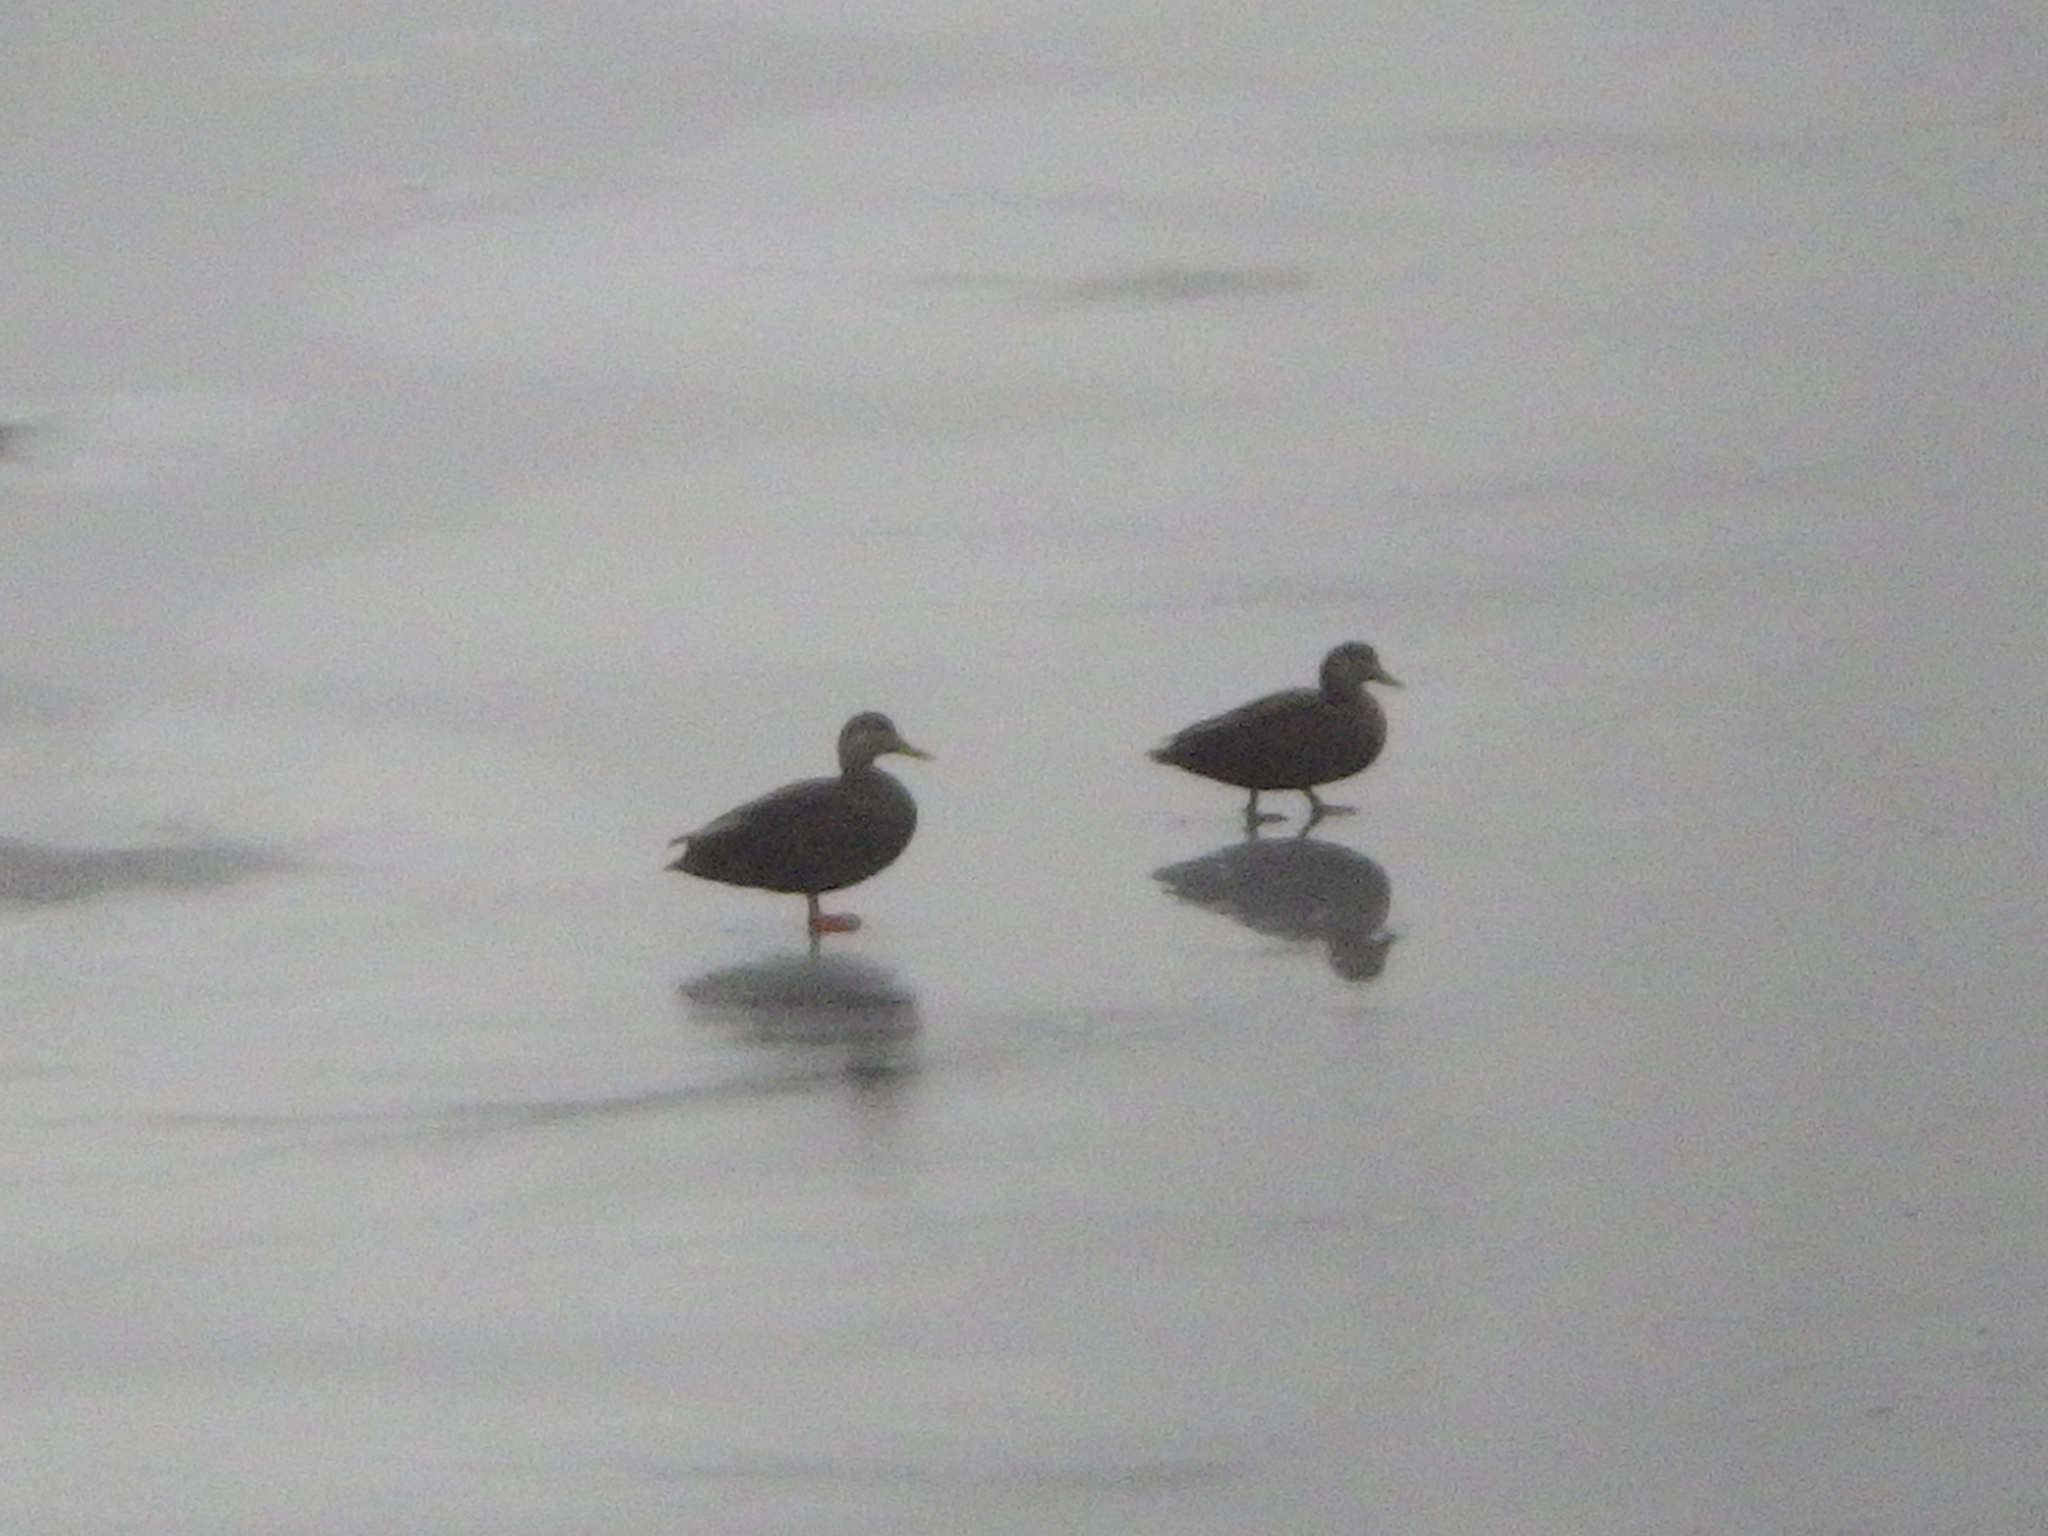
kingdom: Animalia
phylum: Chordata
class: Aves
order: Anseriformes
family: Anatidae
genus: Anas
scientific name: Anas rubripes
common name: American black duck
